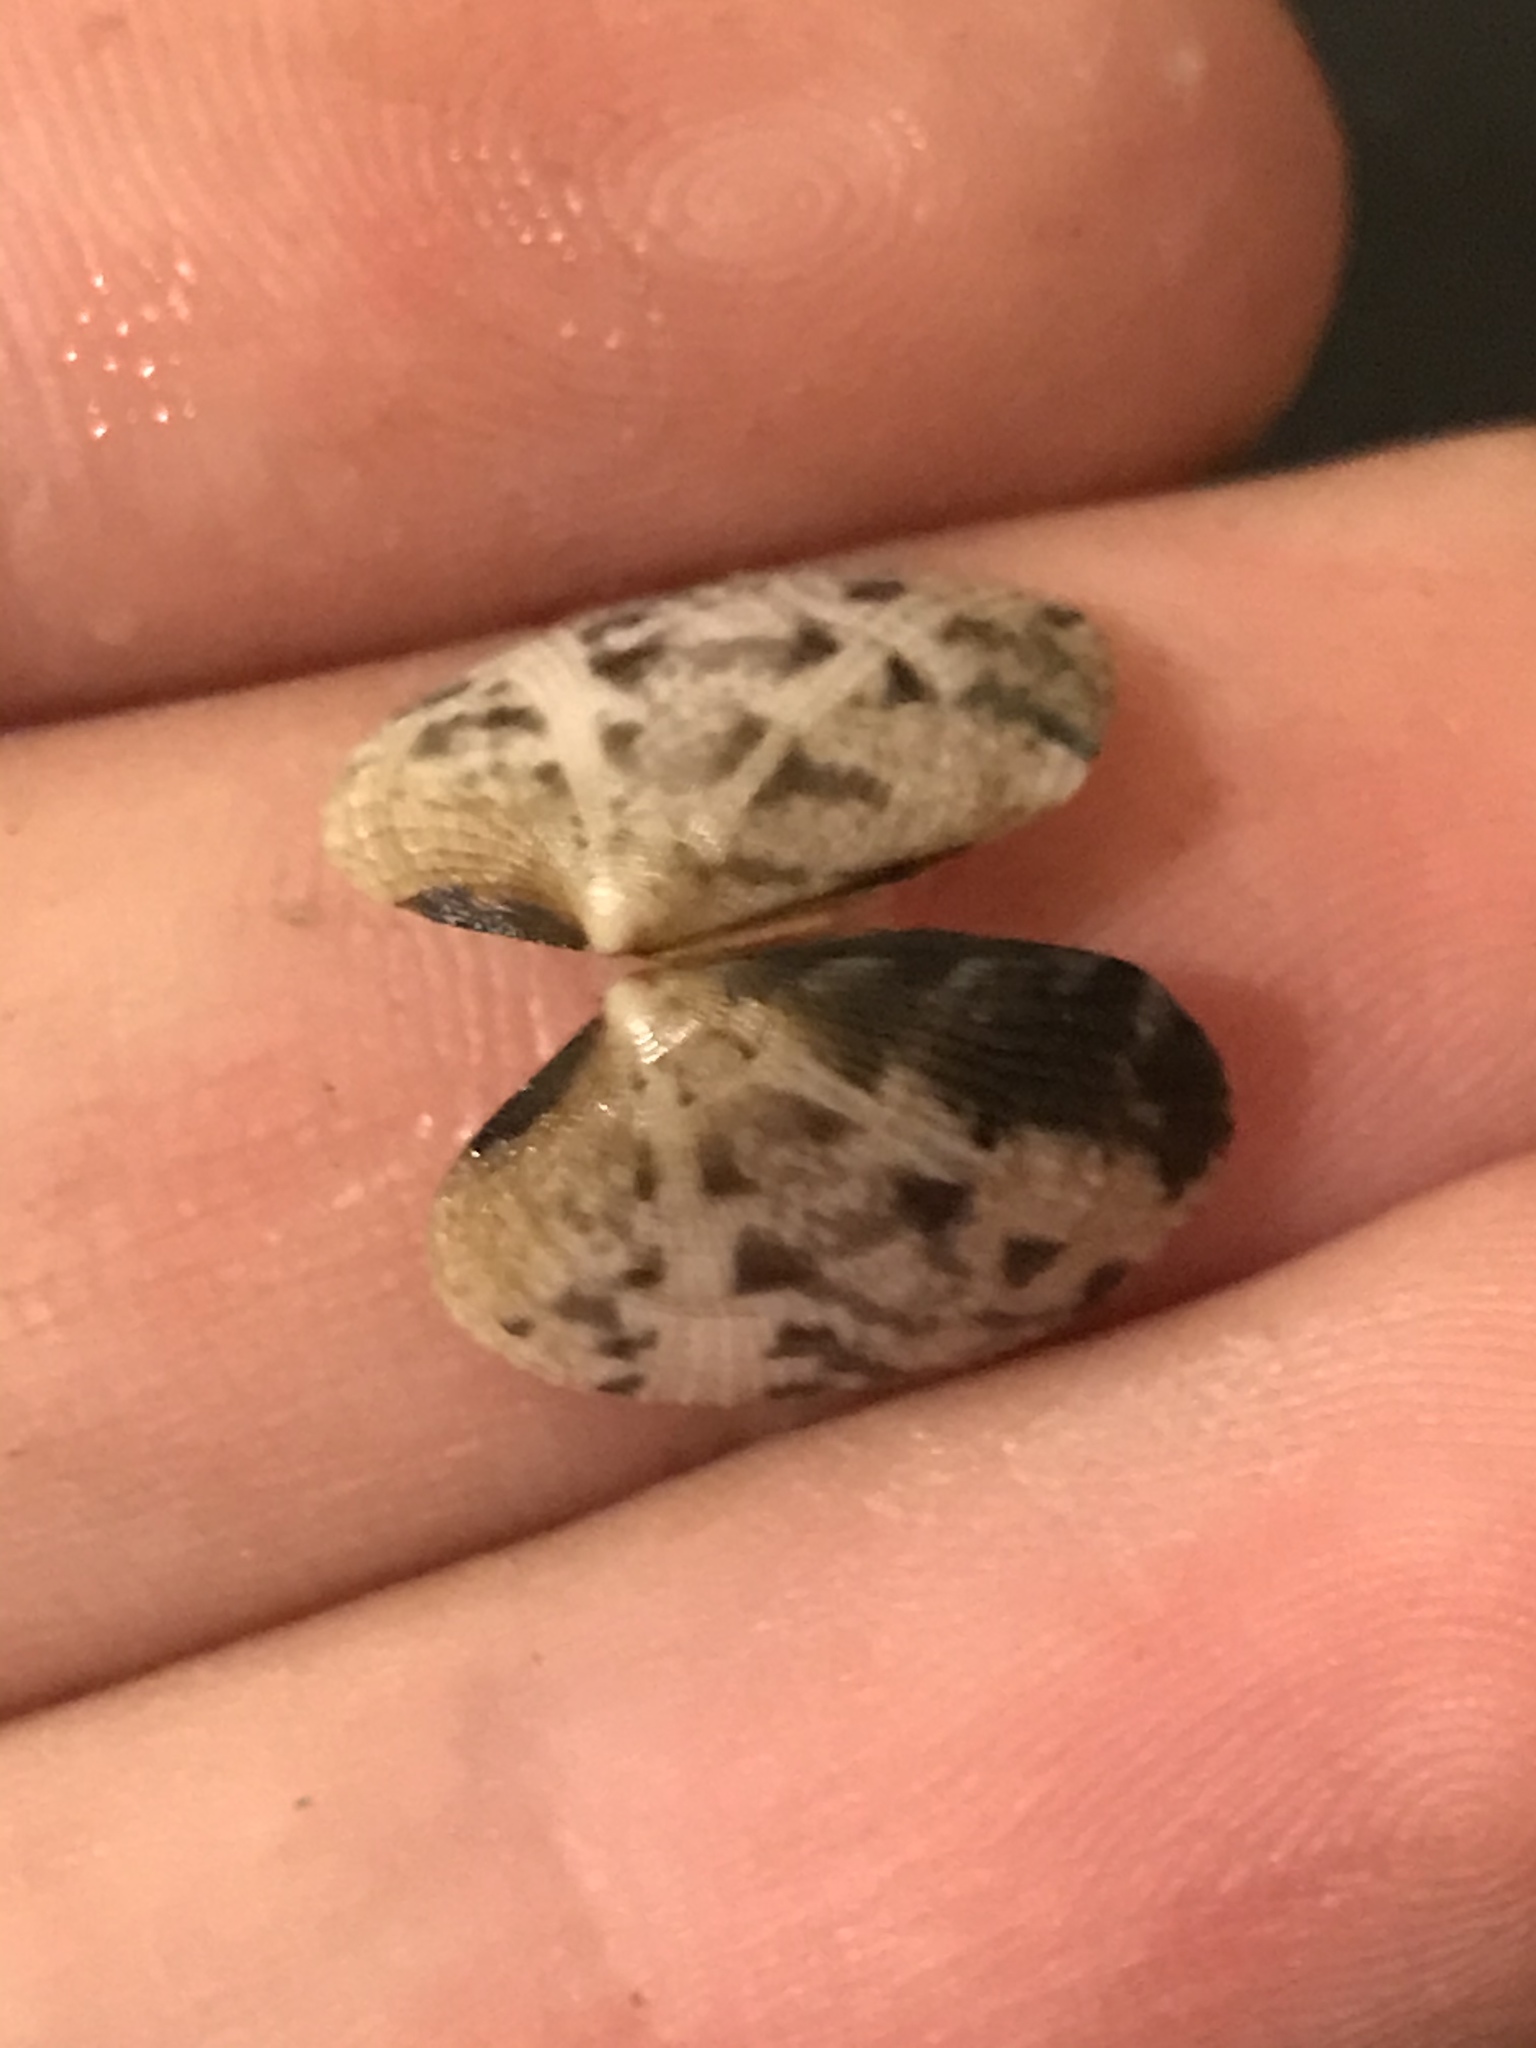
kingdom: Animalia
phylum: Mollusca
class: Bivalvia
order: Venerida
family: Veneridae
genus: Ruditapes
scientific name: Ruditapes philippinarum
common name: Manila clam
